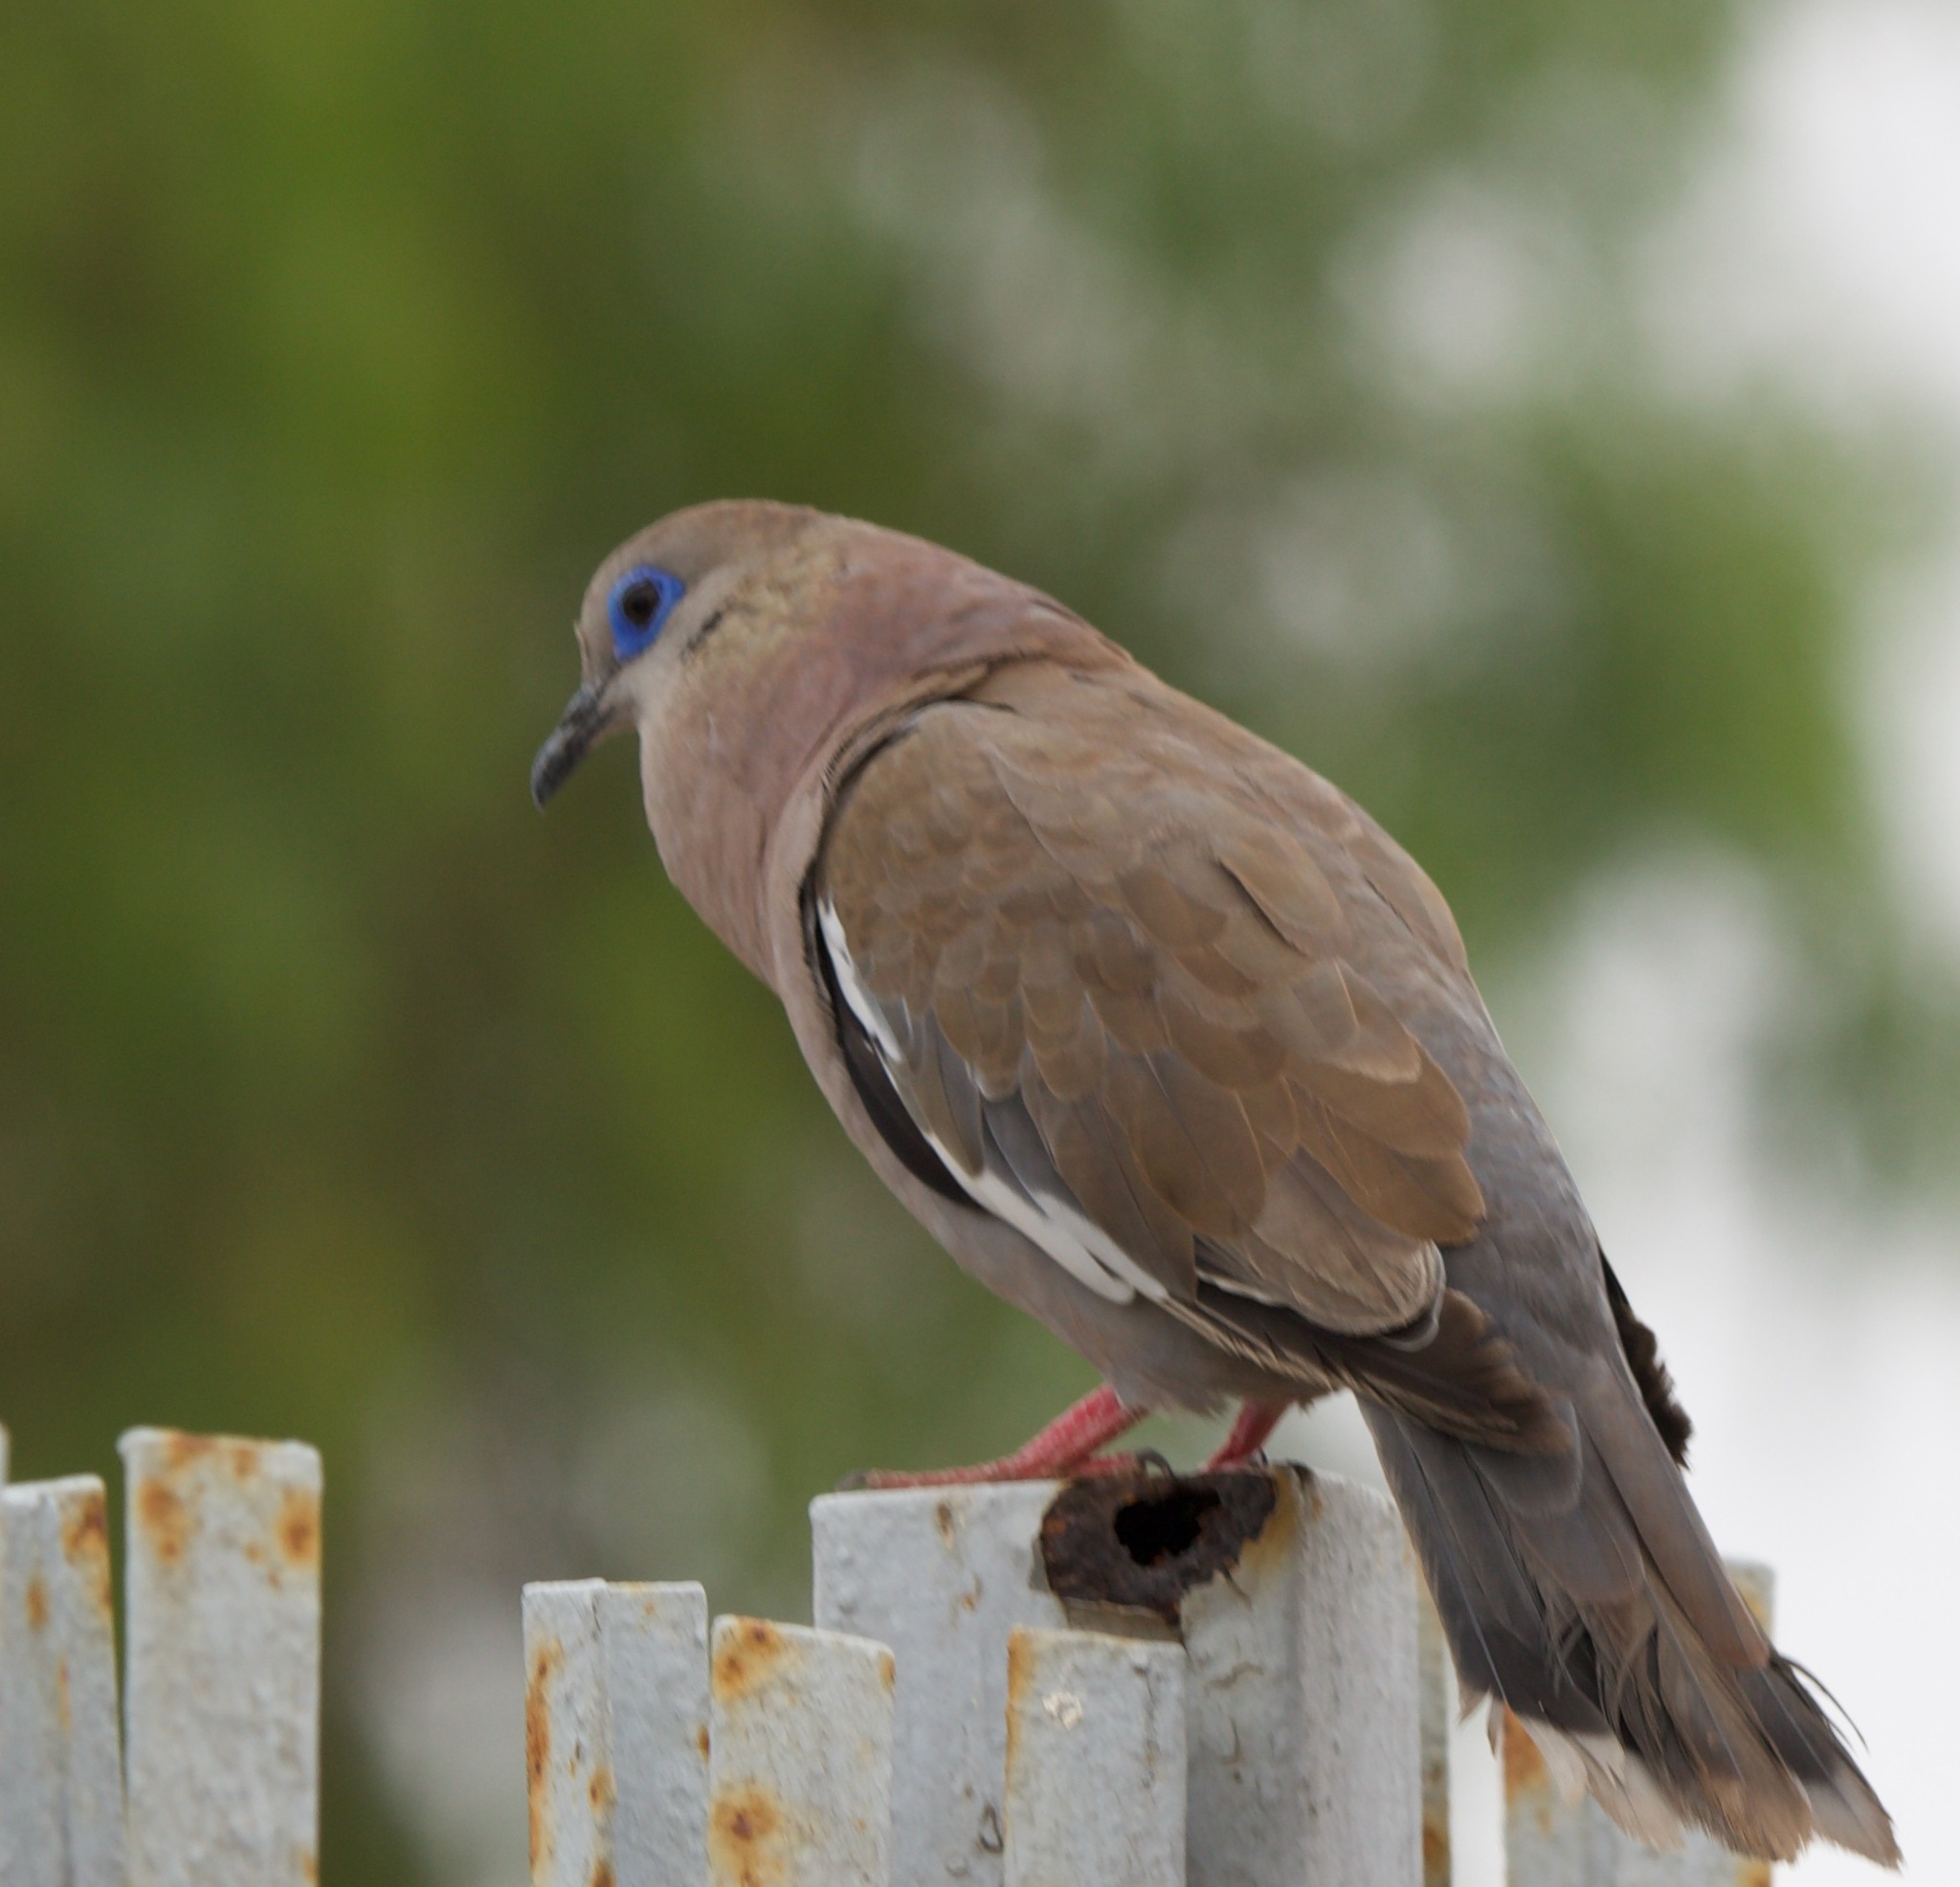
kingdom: Animalia
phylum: Chordata
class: Aves
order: Columbiformes
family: Columbidae
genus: Zenaida
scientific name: Zenaida meloda
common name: West peruvian dove
